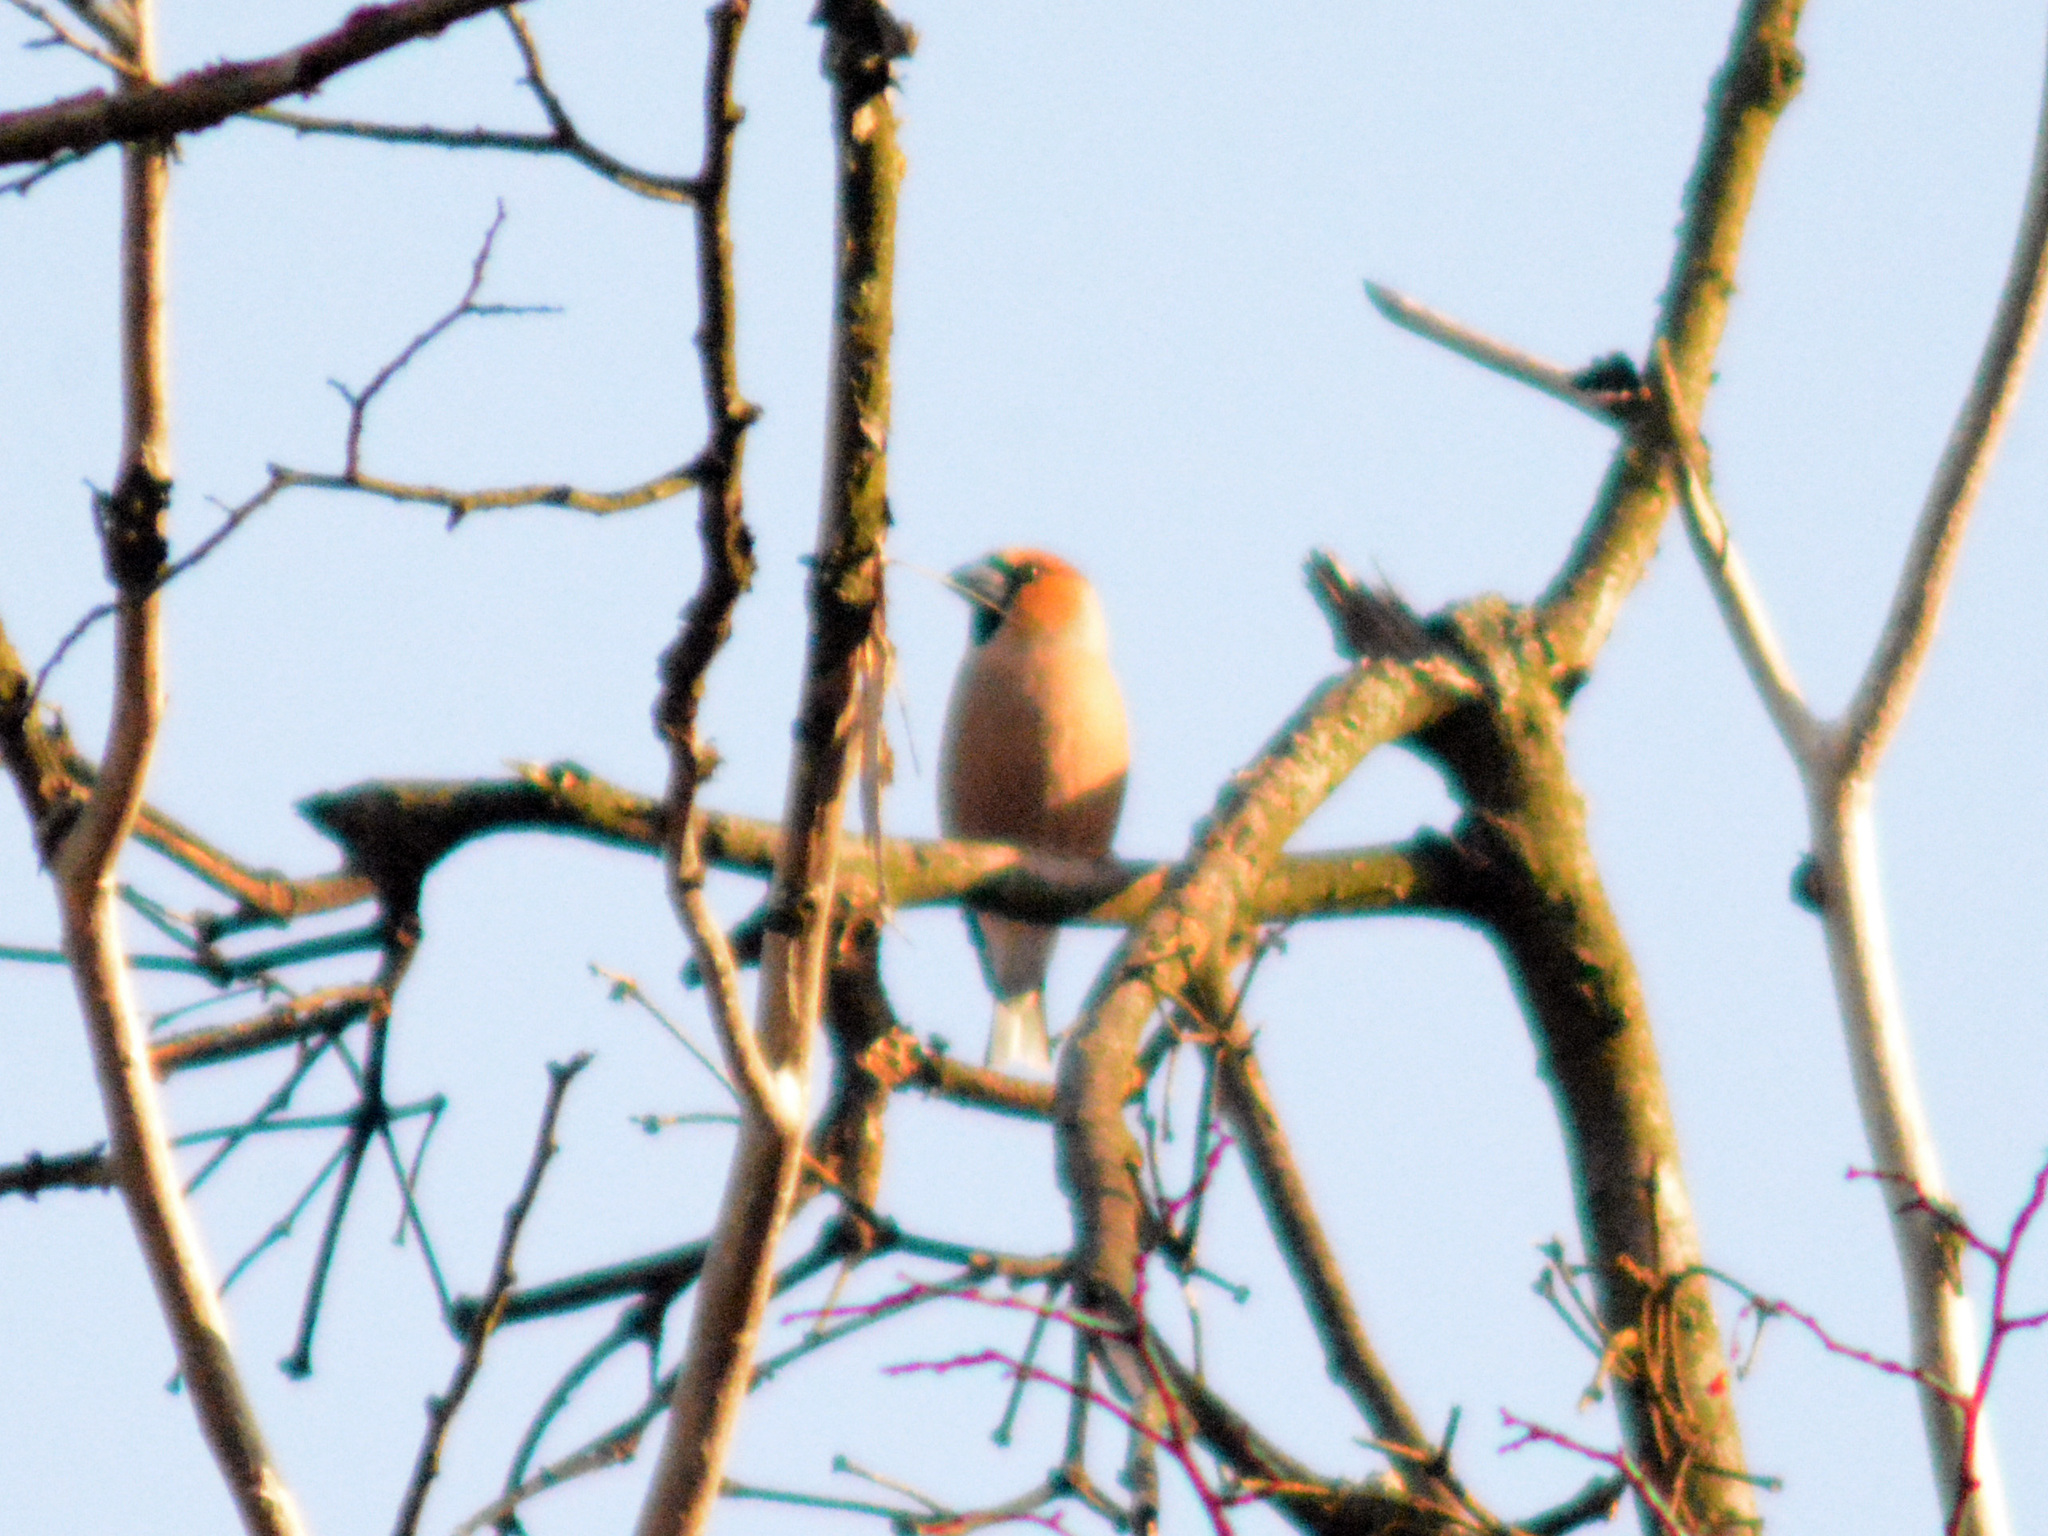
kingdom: Animalia
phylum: Chordata
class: Aves
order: Passeriformes
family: Fringillidae
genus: Coccothraustes
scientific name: Coccothraustes coccothraustes
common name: Hawfinch
